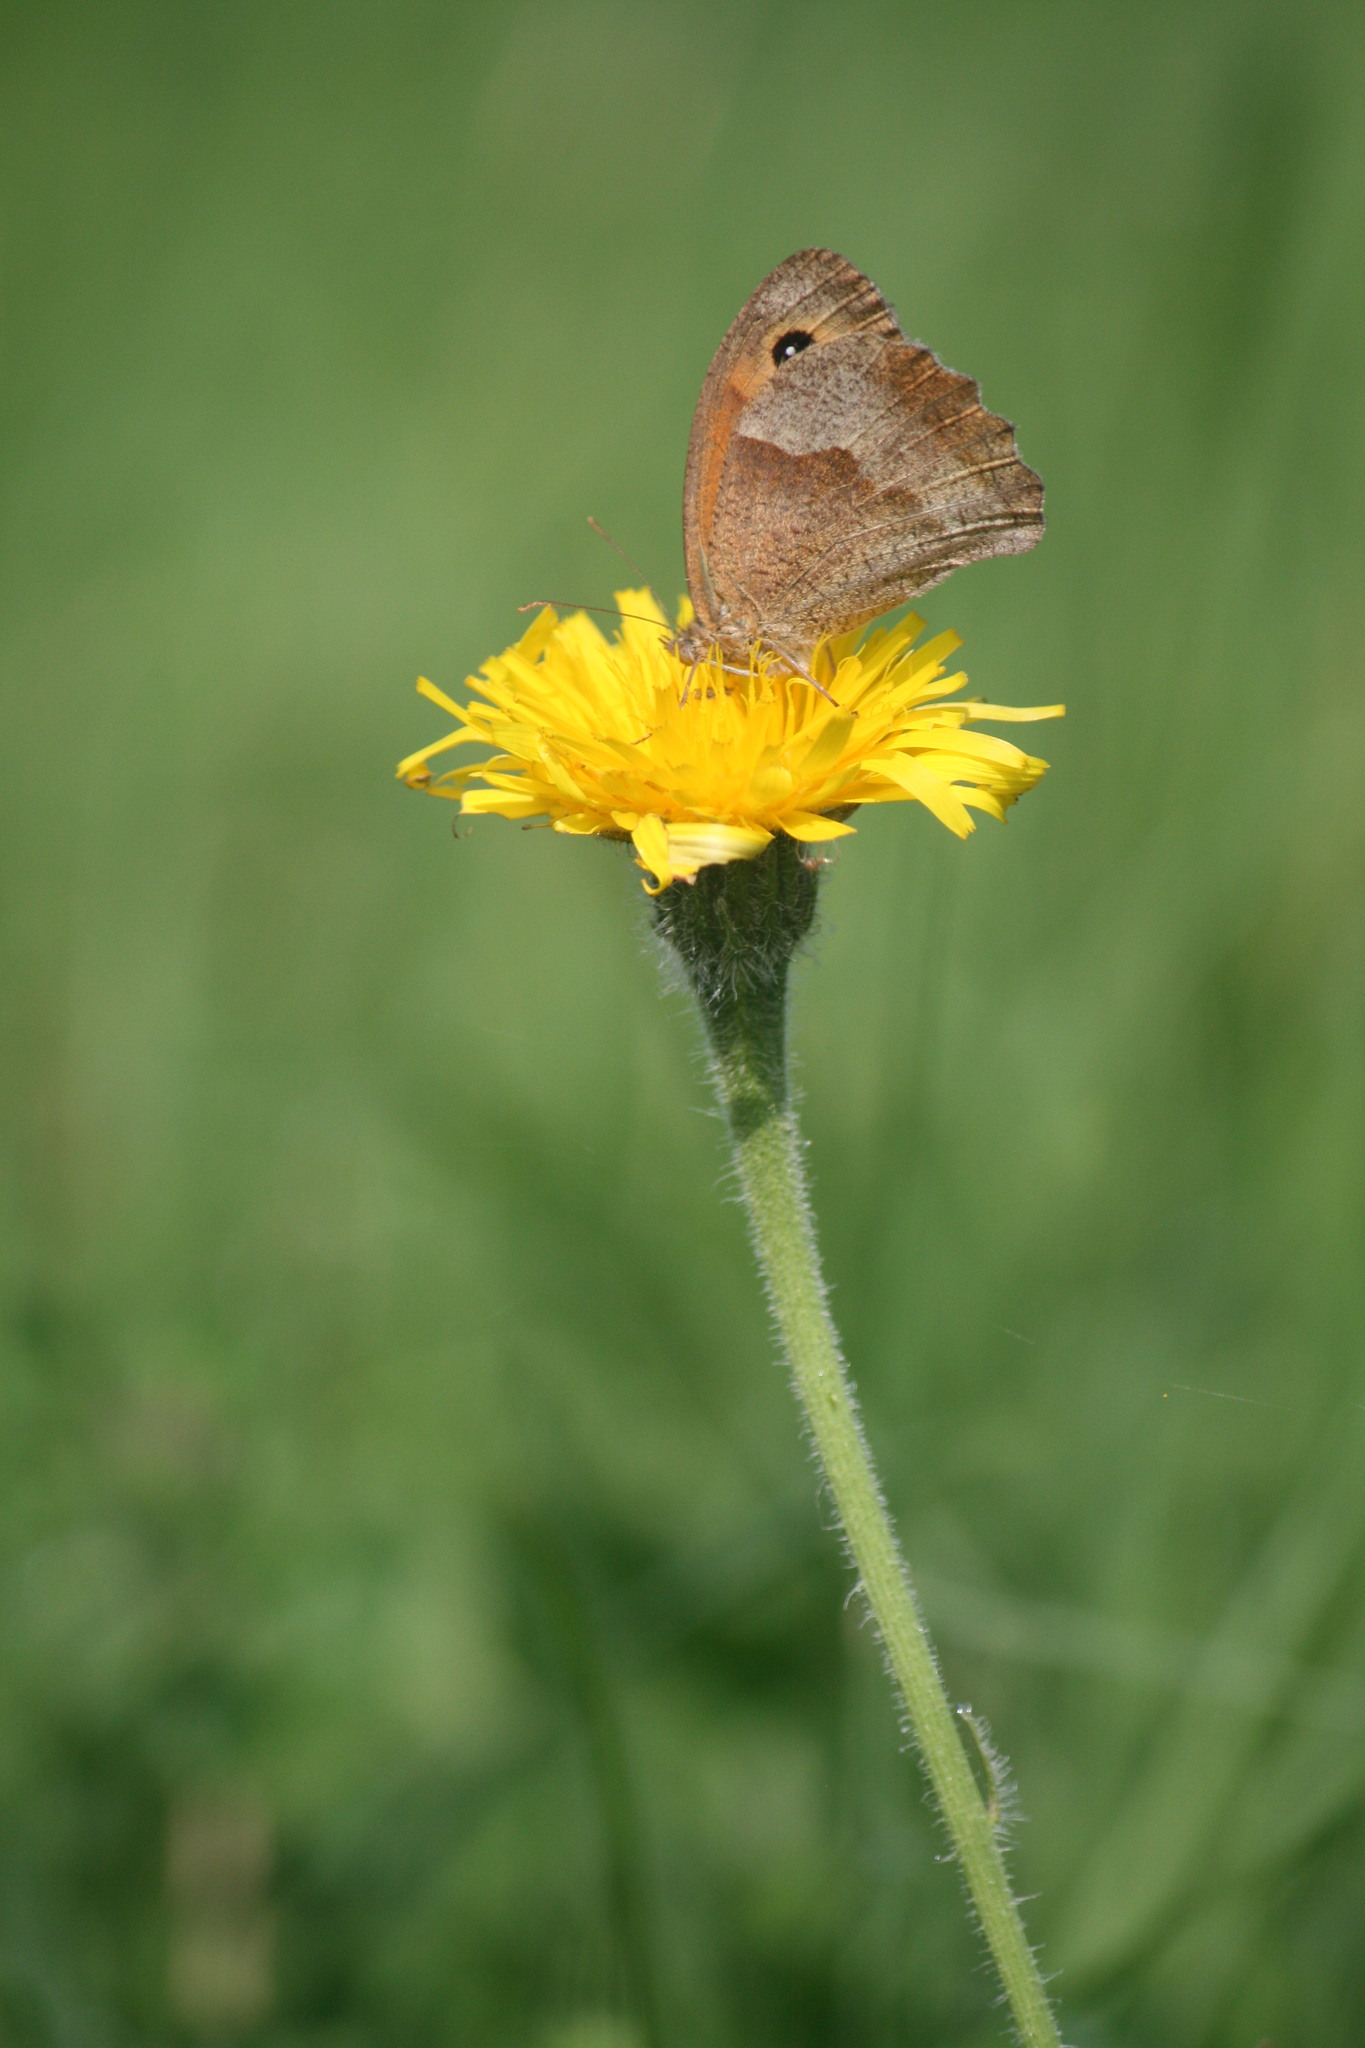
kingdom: Animalia
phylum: Arthropoda
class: Insecta
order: Lepidoptera
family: Nymphalidae
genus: Maniola
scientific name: Maniola jurtina
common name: Meadow brown
